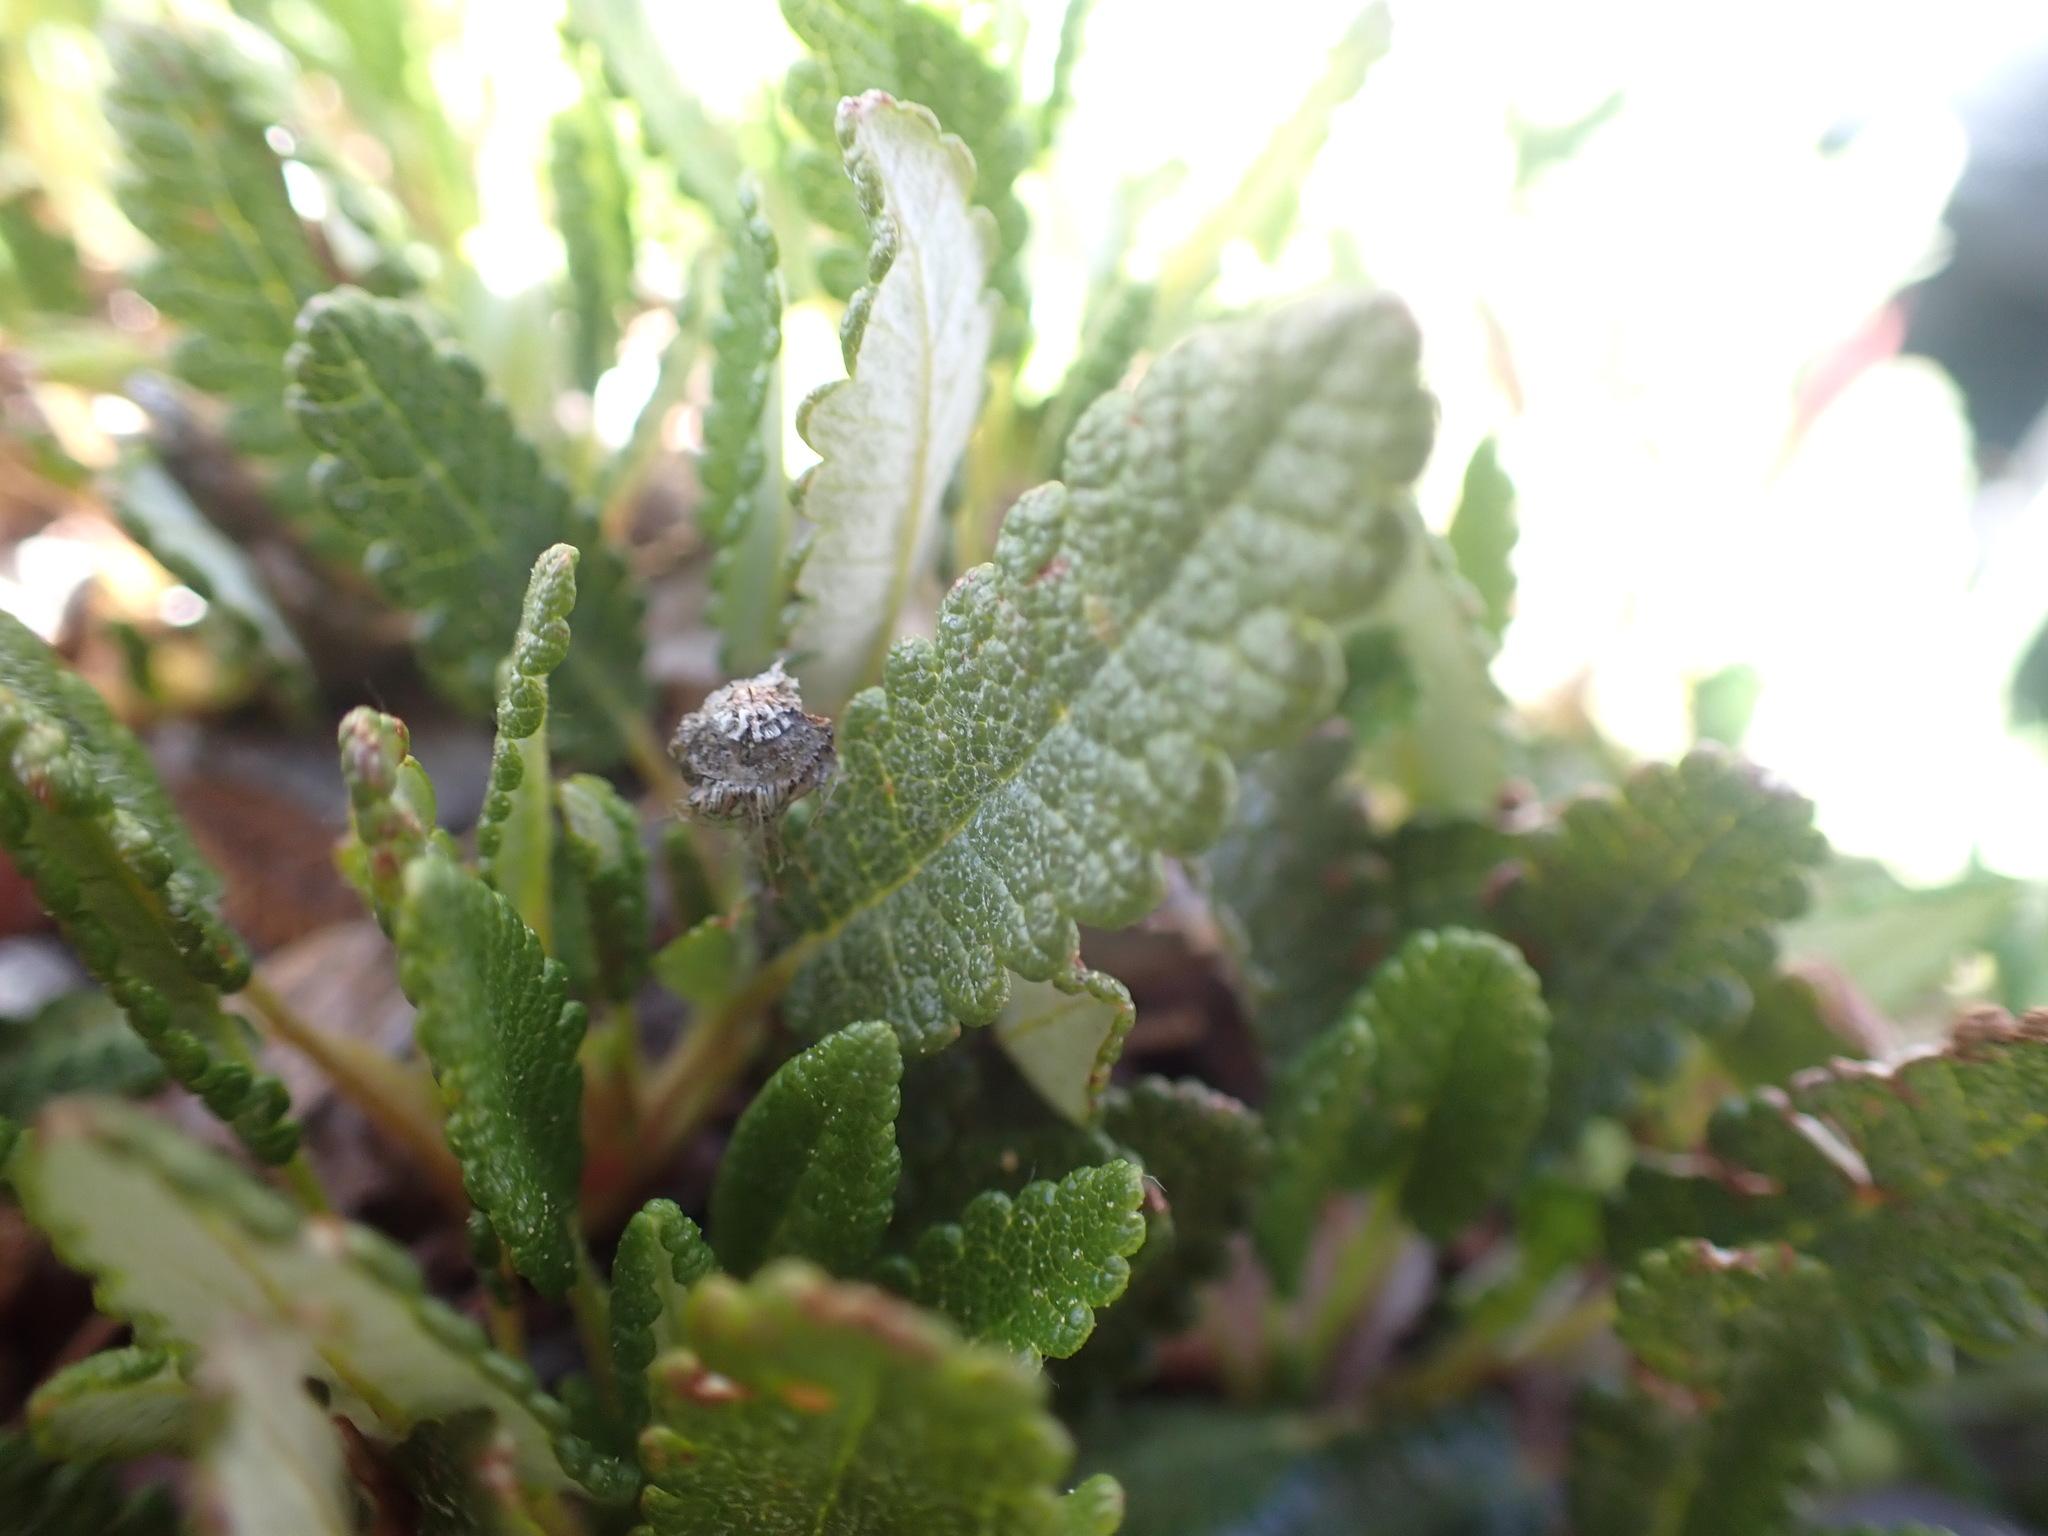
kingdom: Plantae
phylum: Tracheophyta
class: Magnoliopsida
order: Rosales
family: Rosaceae
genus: Dryas
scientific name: Dryas octopetala
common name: Eight-petal mountain-avens
